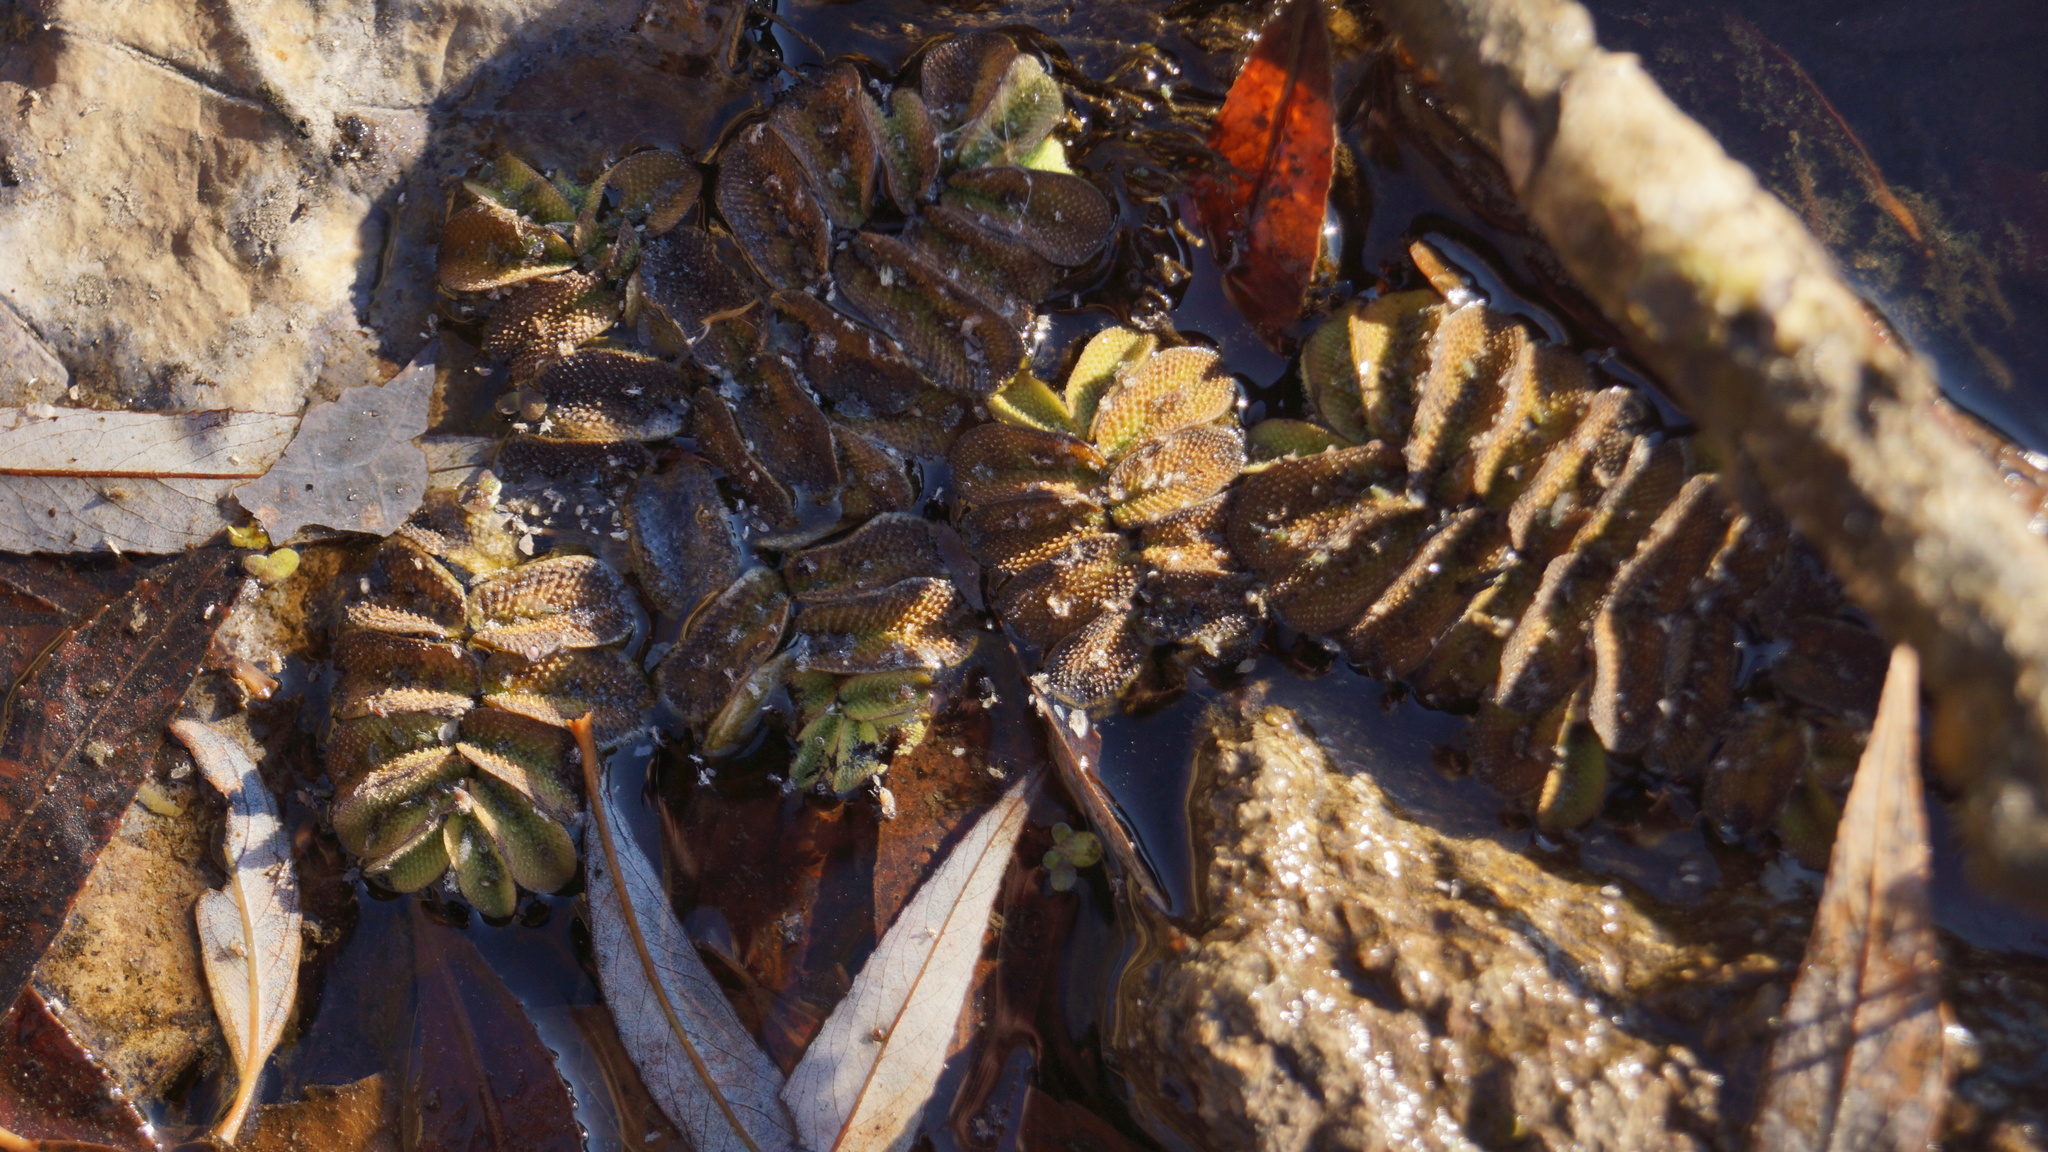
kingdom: Plantae
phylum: Tracheophyta
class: Polypodiopsida
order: Salviniales
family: Salviniaceae
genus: Salvinia
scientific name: Salvinia natans
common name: Floating fern
